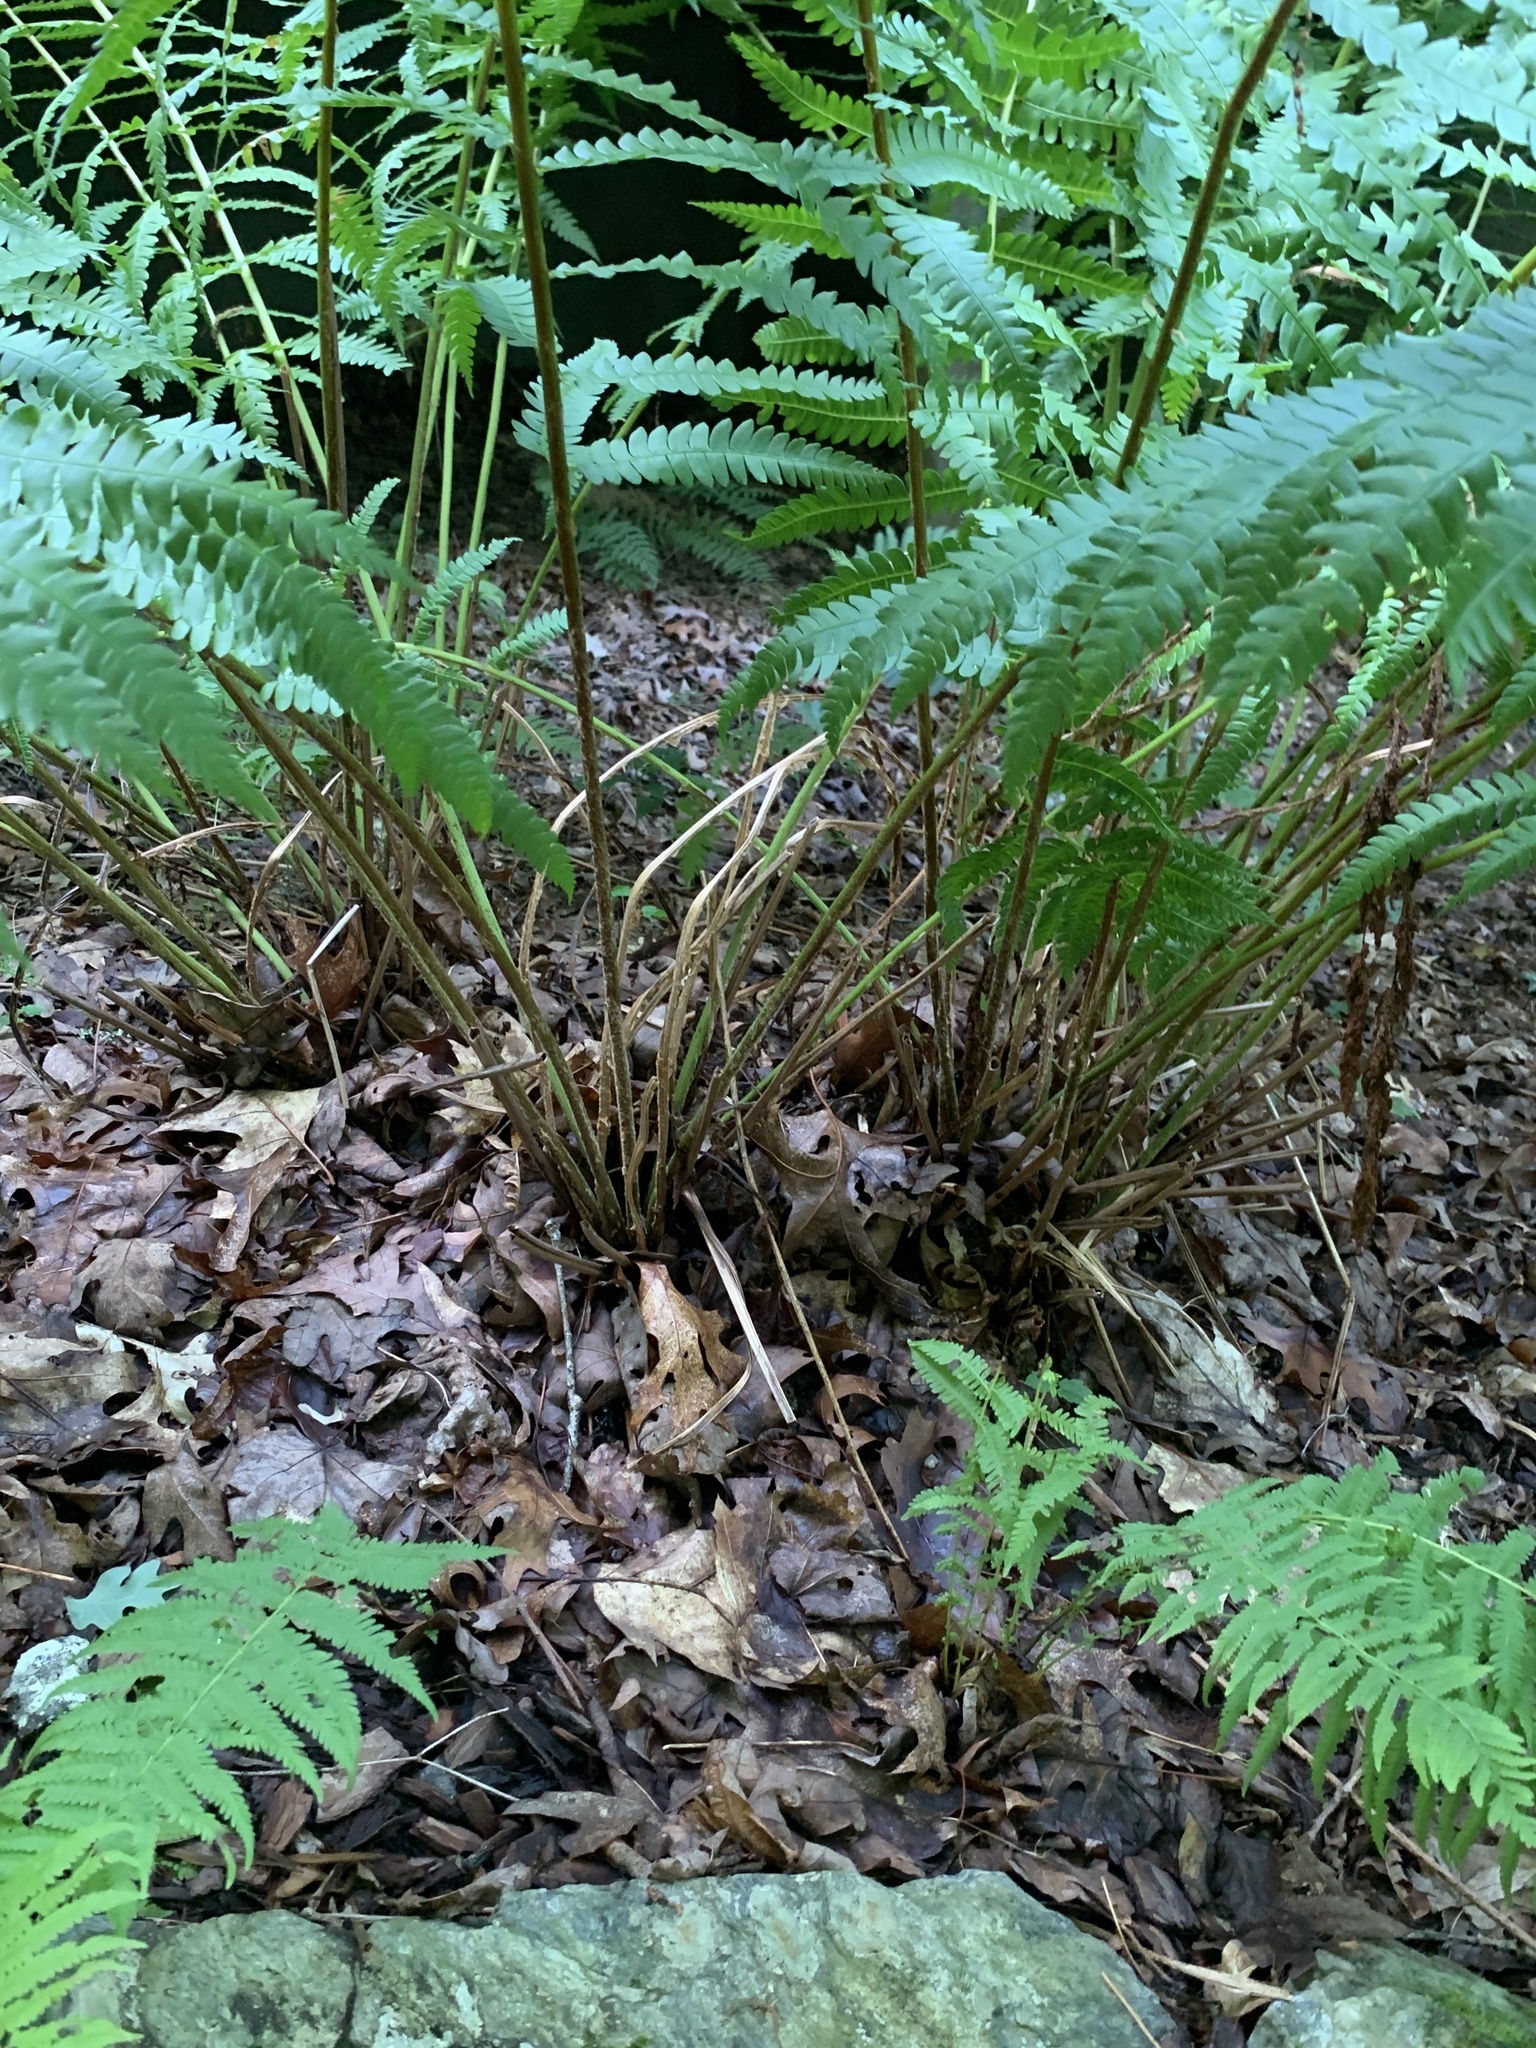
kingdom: Plantae
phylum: Tracheophyta
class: Polypodiopsida
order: Osmundales
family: Osmundaceae
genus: Osmundastrum
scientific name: Osmundastrum cinnamomeum
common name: Cinnamon fern
